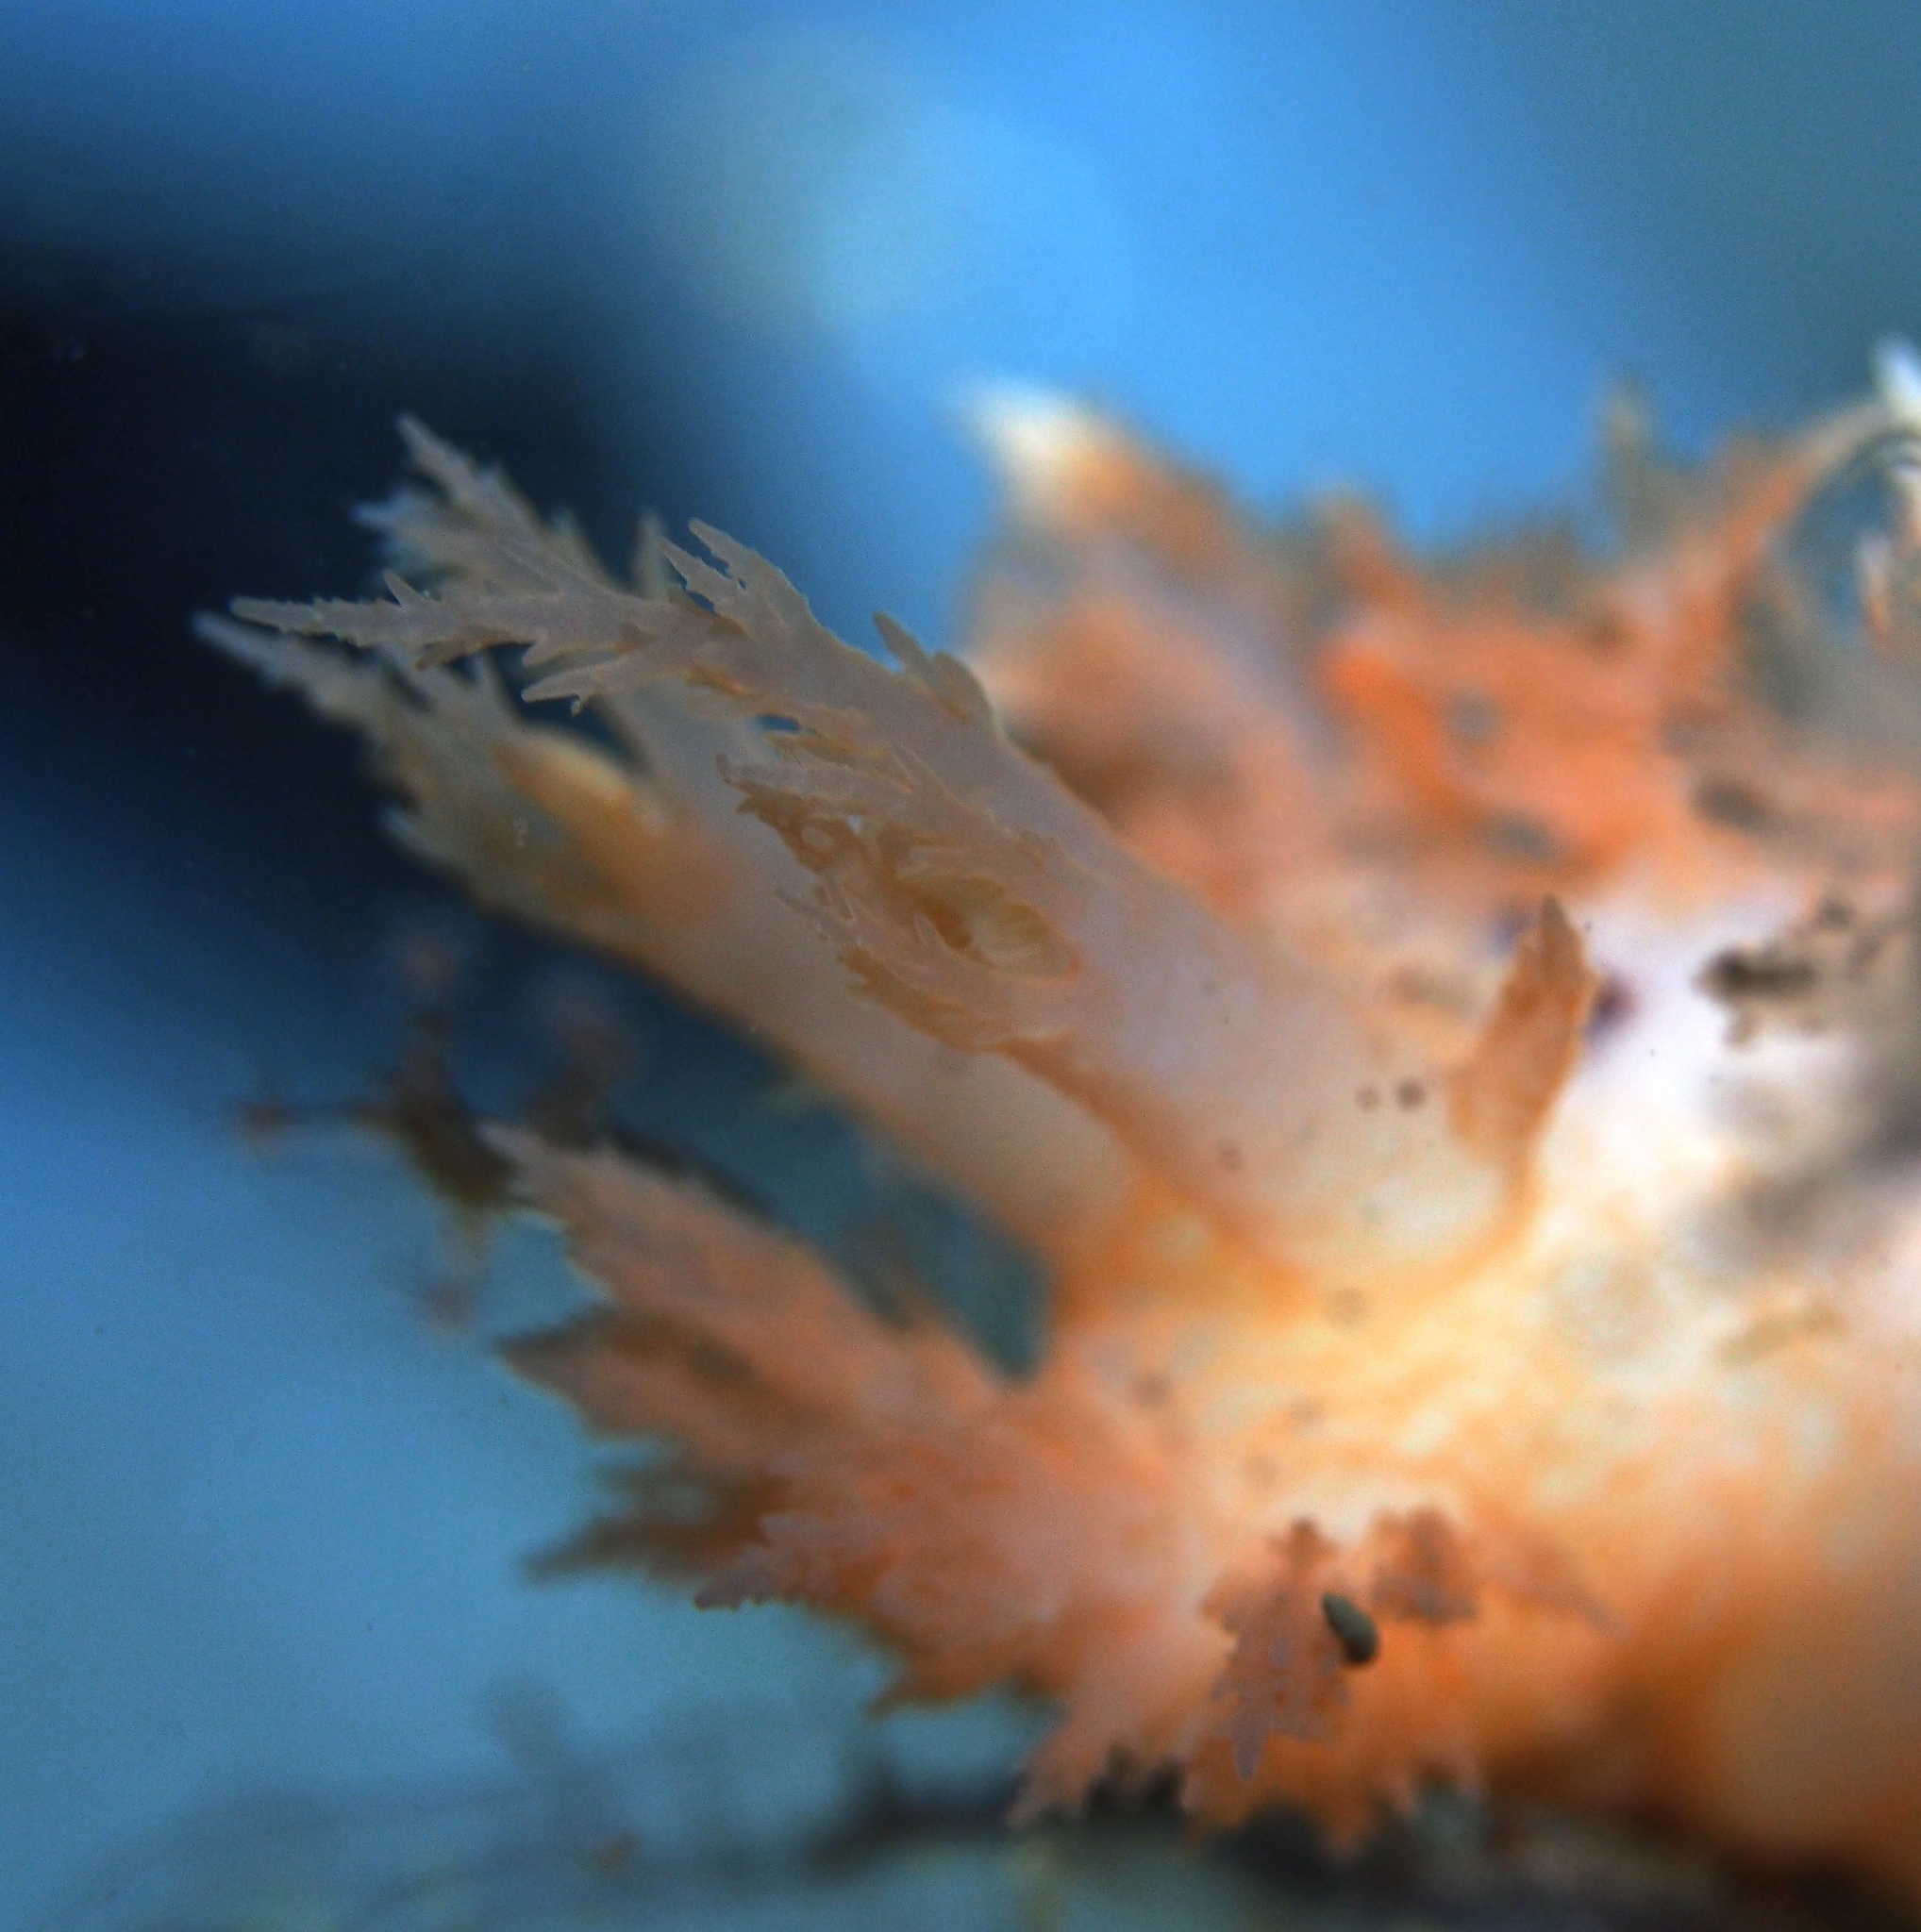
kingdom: Animalia
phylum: Mollusca
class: Gastropoda
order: Nudibranchia
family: Dendronotidae
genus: Dendronotus
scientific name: Dendronotus frondosus
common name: Bushy-backed nudibranch
